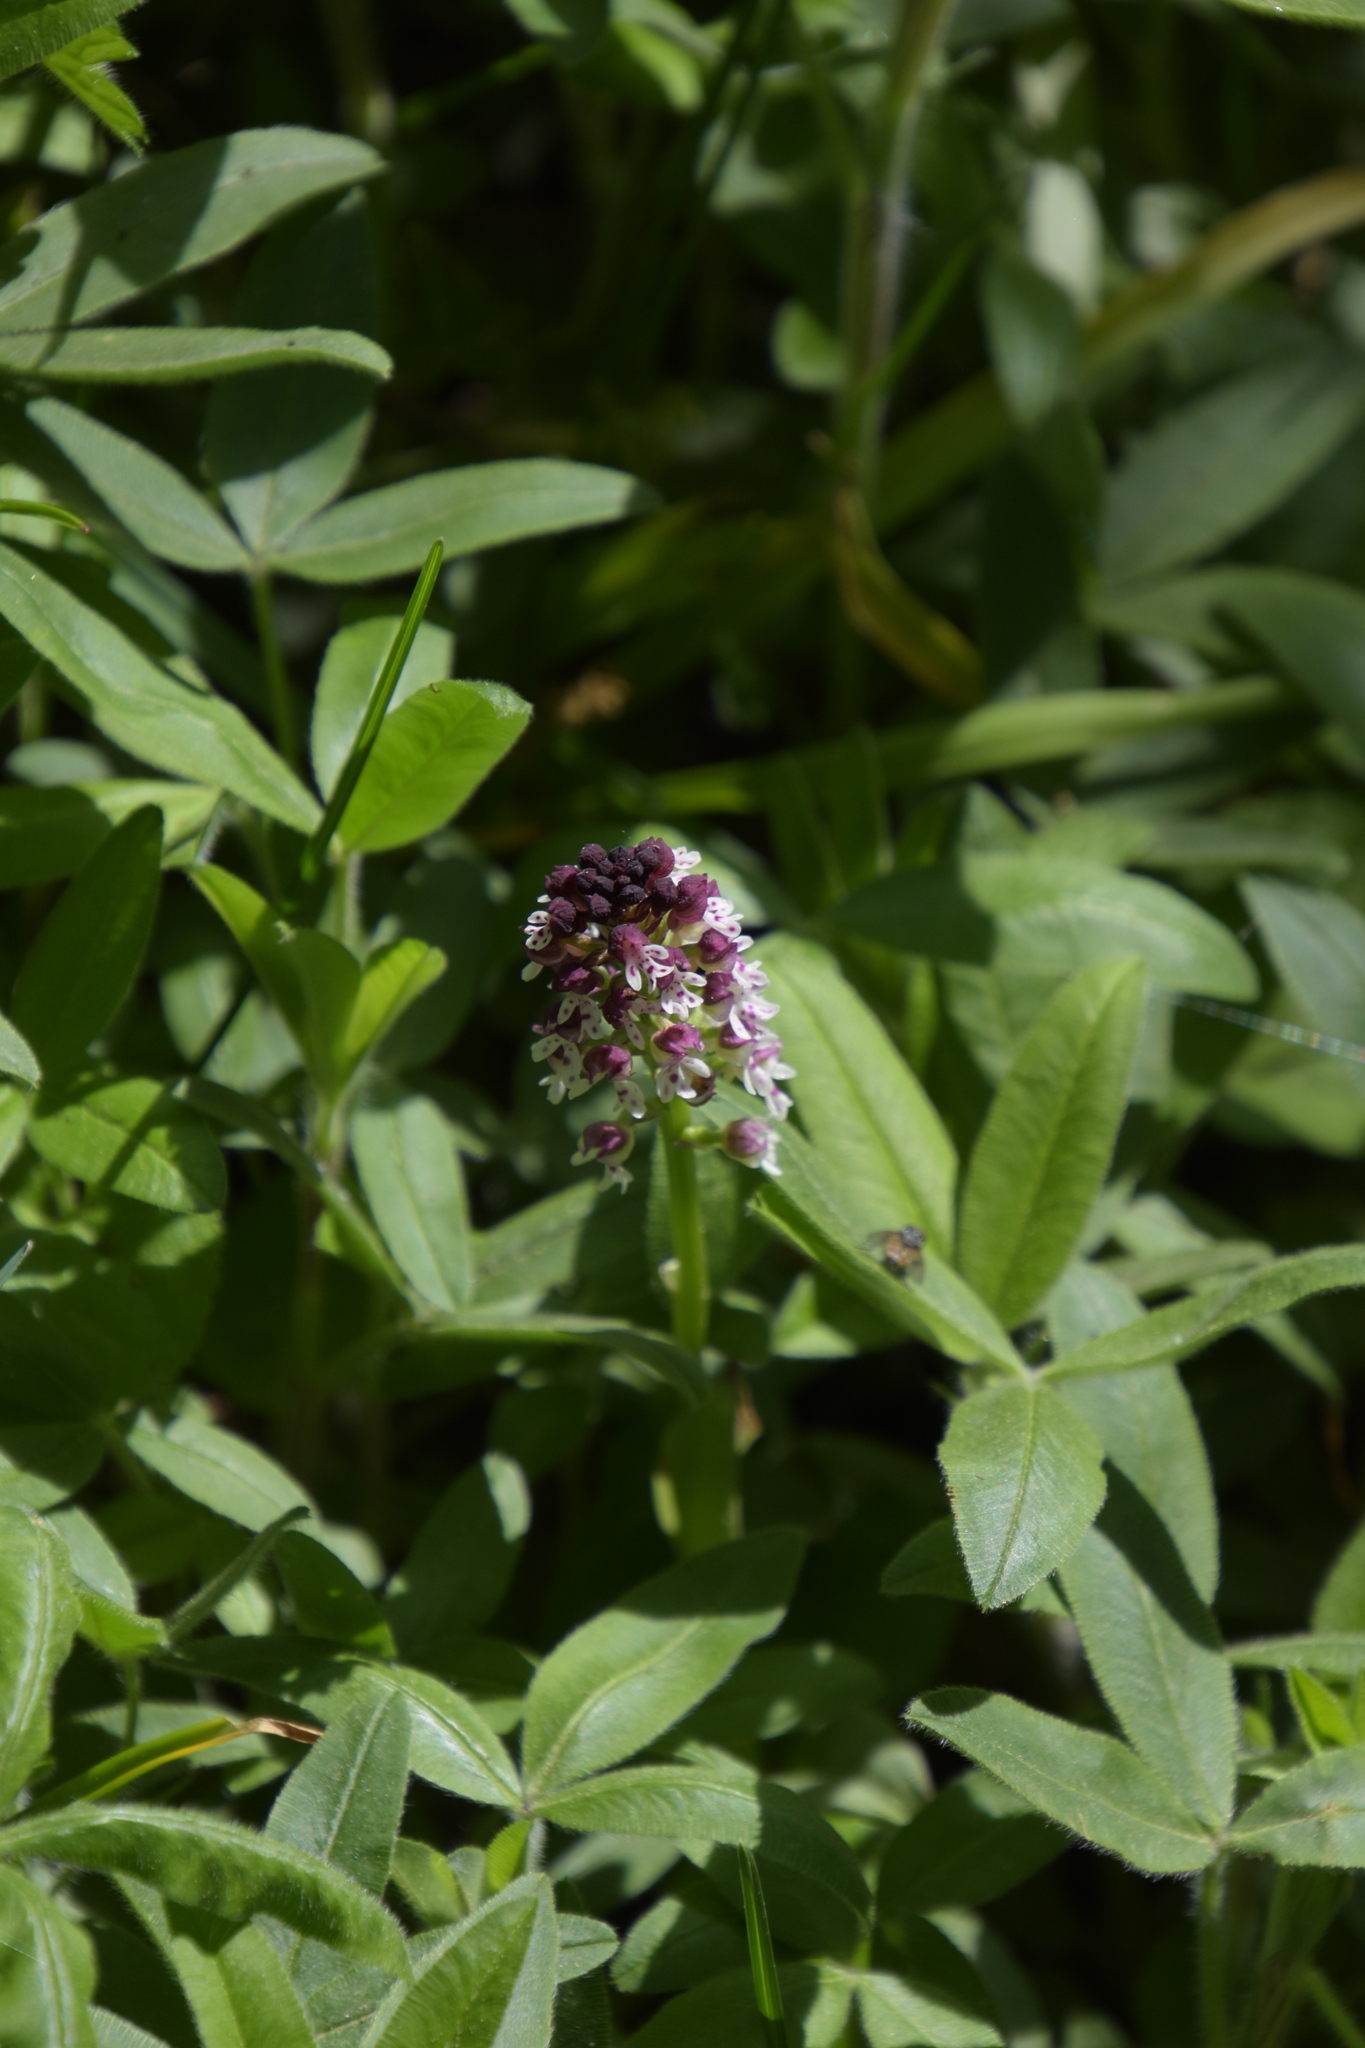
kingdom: Plantae
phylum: Tracheophyta
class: Liliopsida
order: Asparagales
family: Orchidaceae
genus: Neotinea
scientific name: Neotinea ustulata
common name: Burnt orchid
